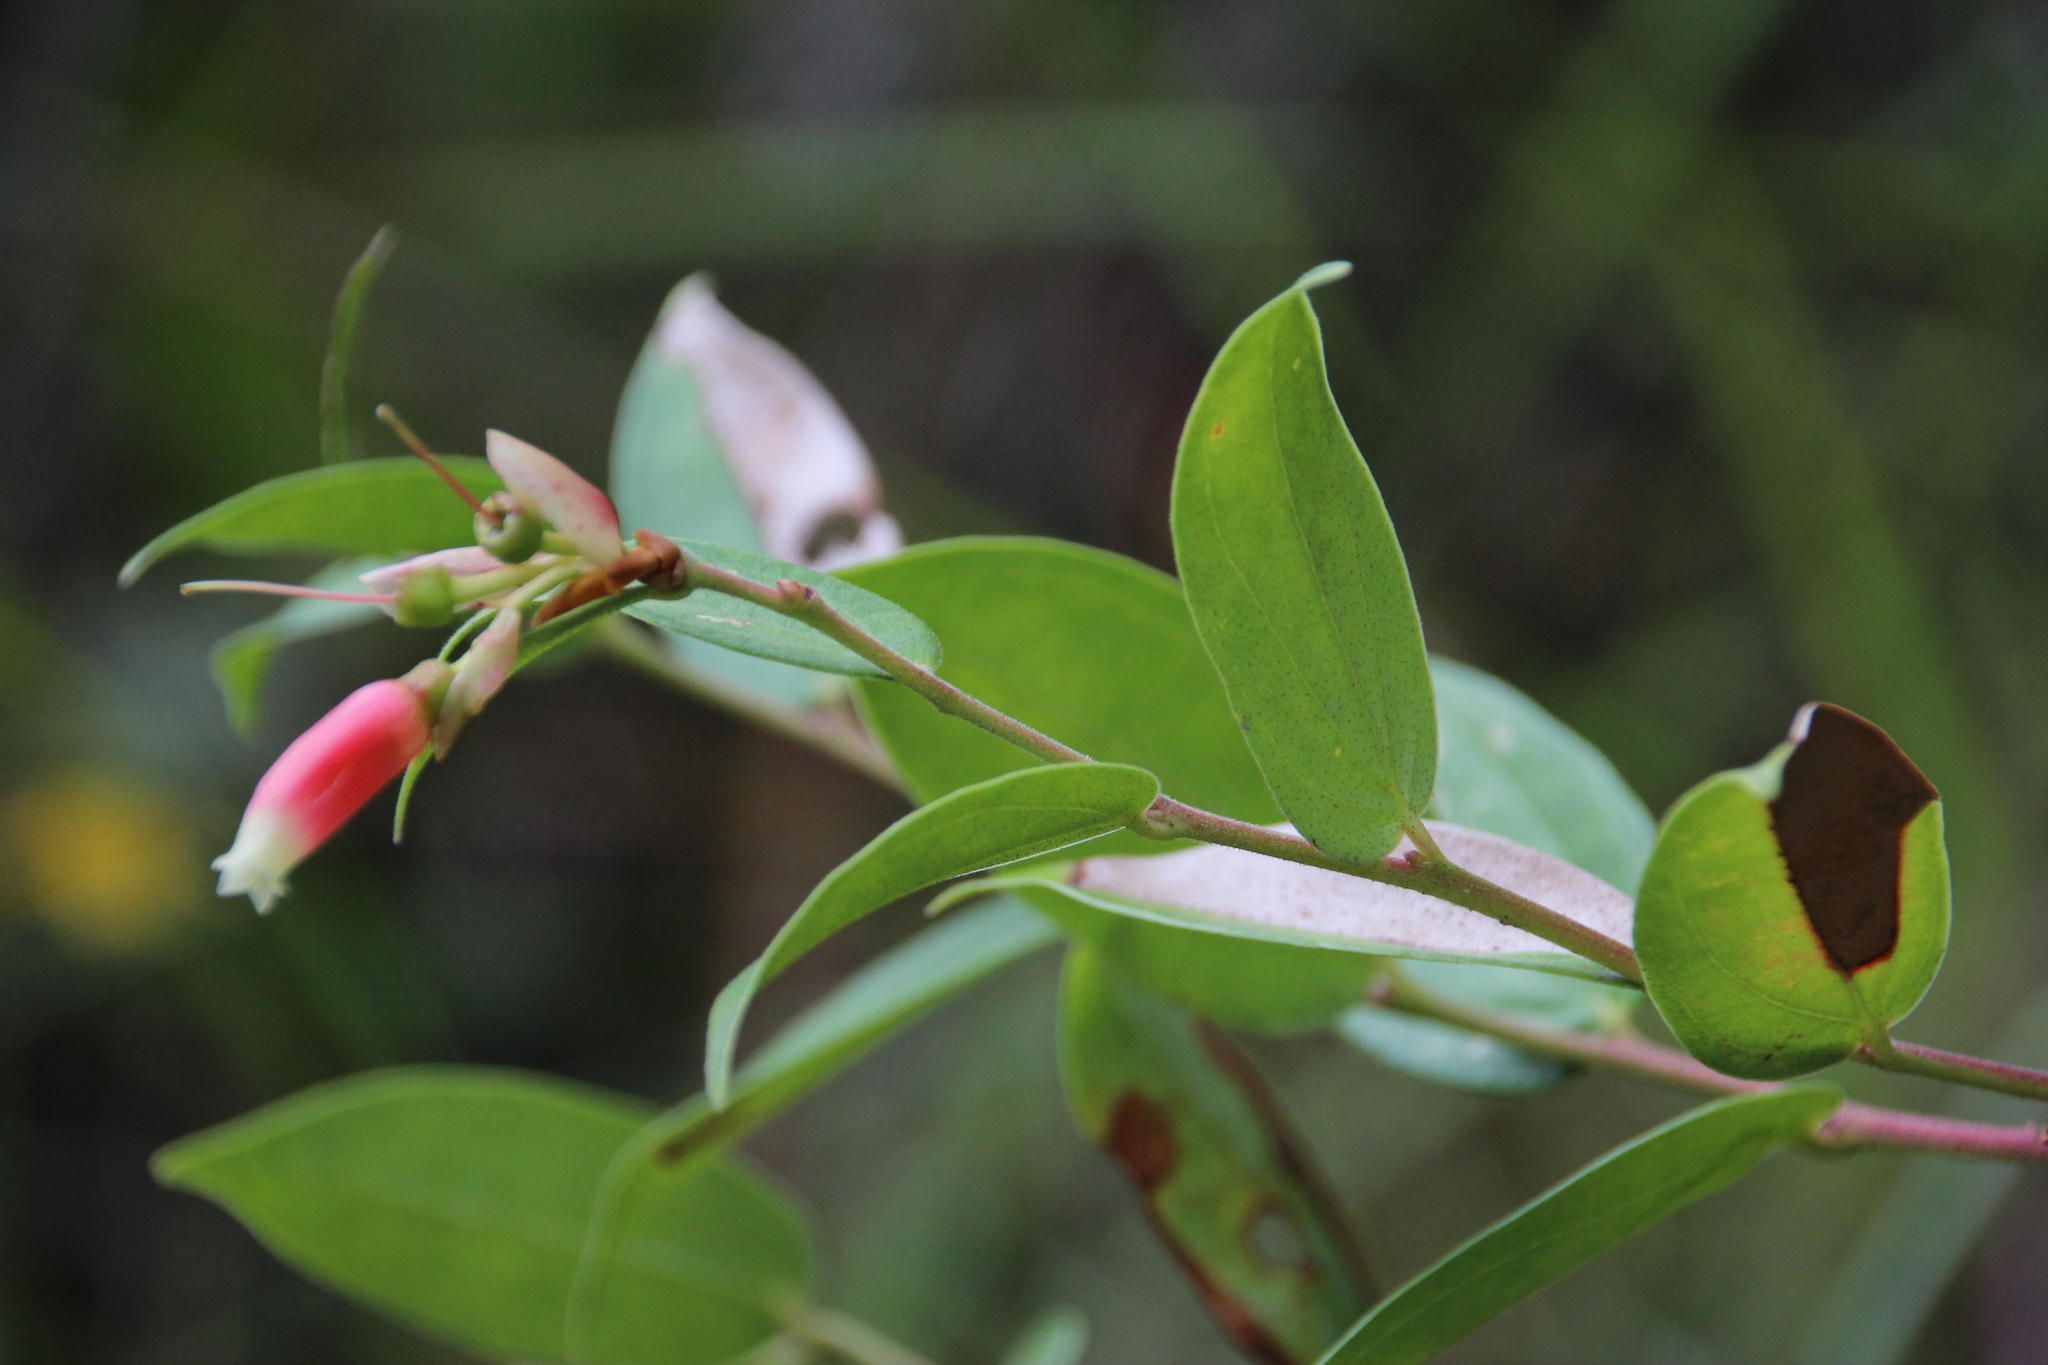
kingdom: Plantae
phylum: Tracheophyta
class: Magnoliopsida
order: Ericales
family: Ericaceae
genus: Cavendishia
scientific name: Cavendishia bracteata
